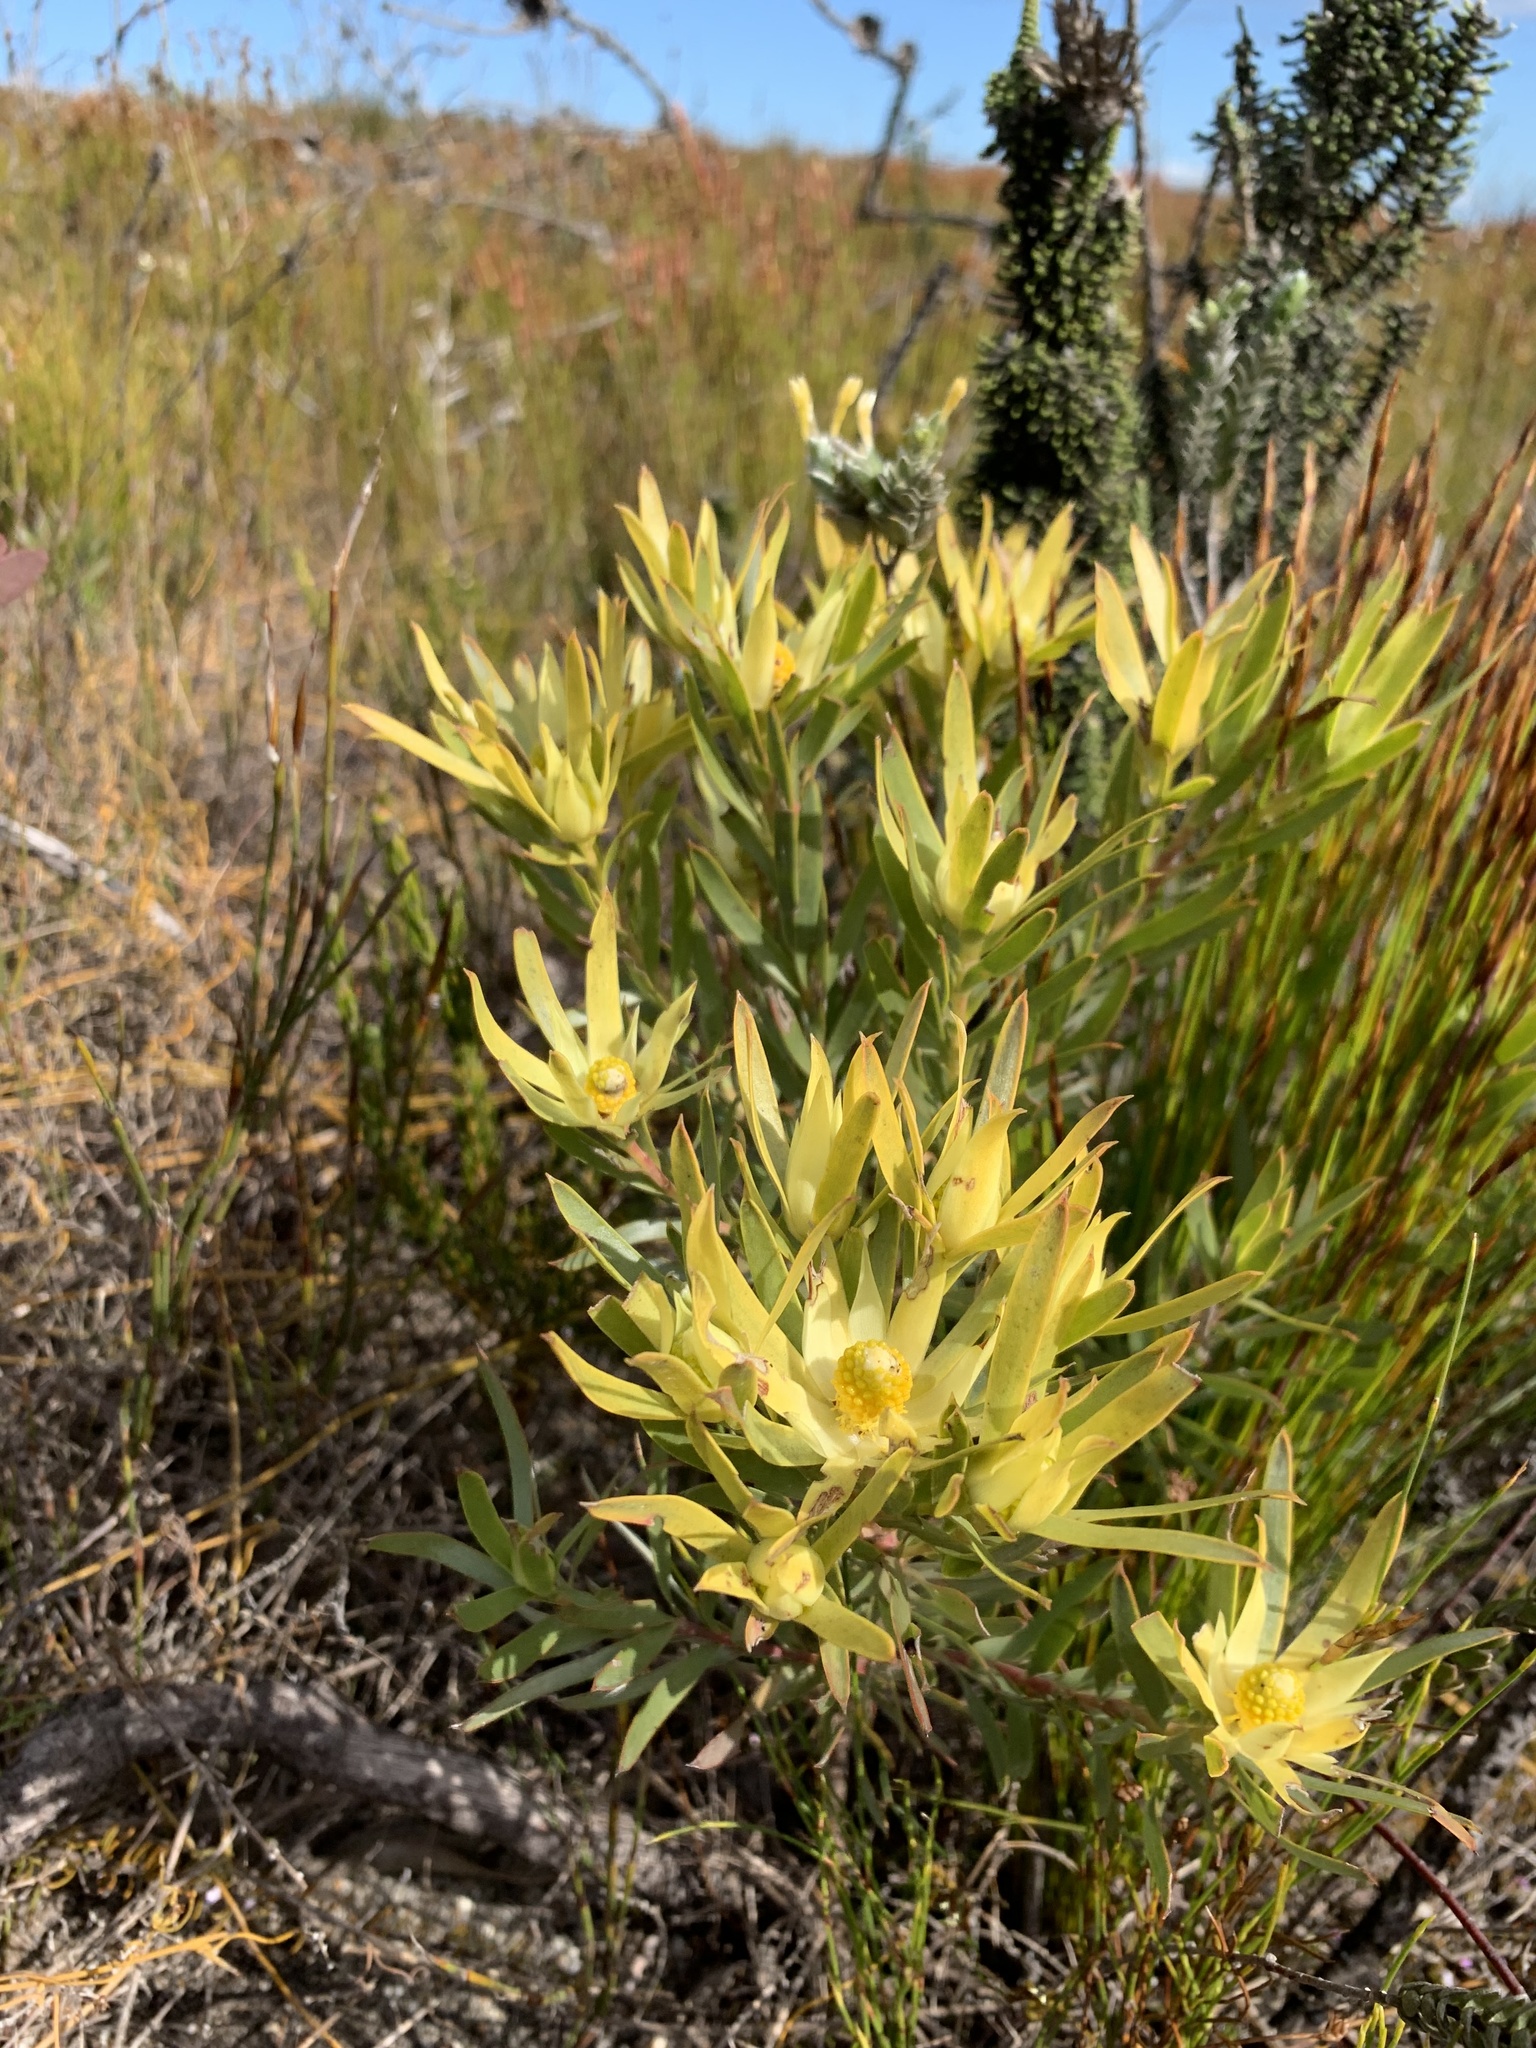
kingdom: Plantae
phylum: Tracheophyta
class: Magnoliopsida
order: Proteales
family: Proteaceae
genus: Leucadendron
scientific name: Leucadendron xanthoconus
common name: Sickle-leaf conebush
